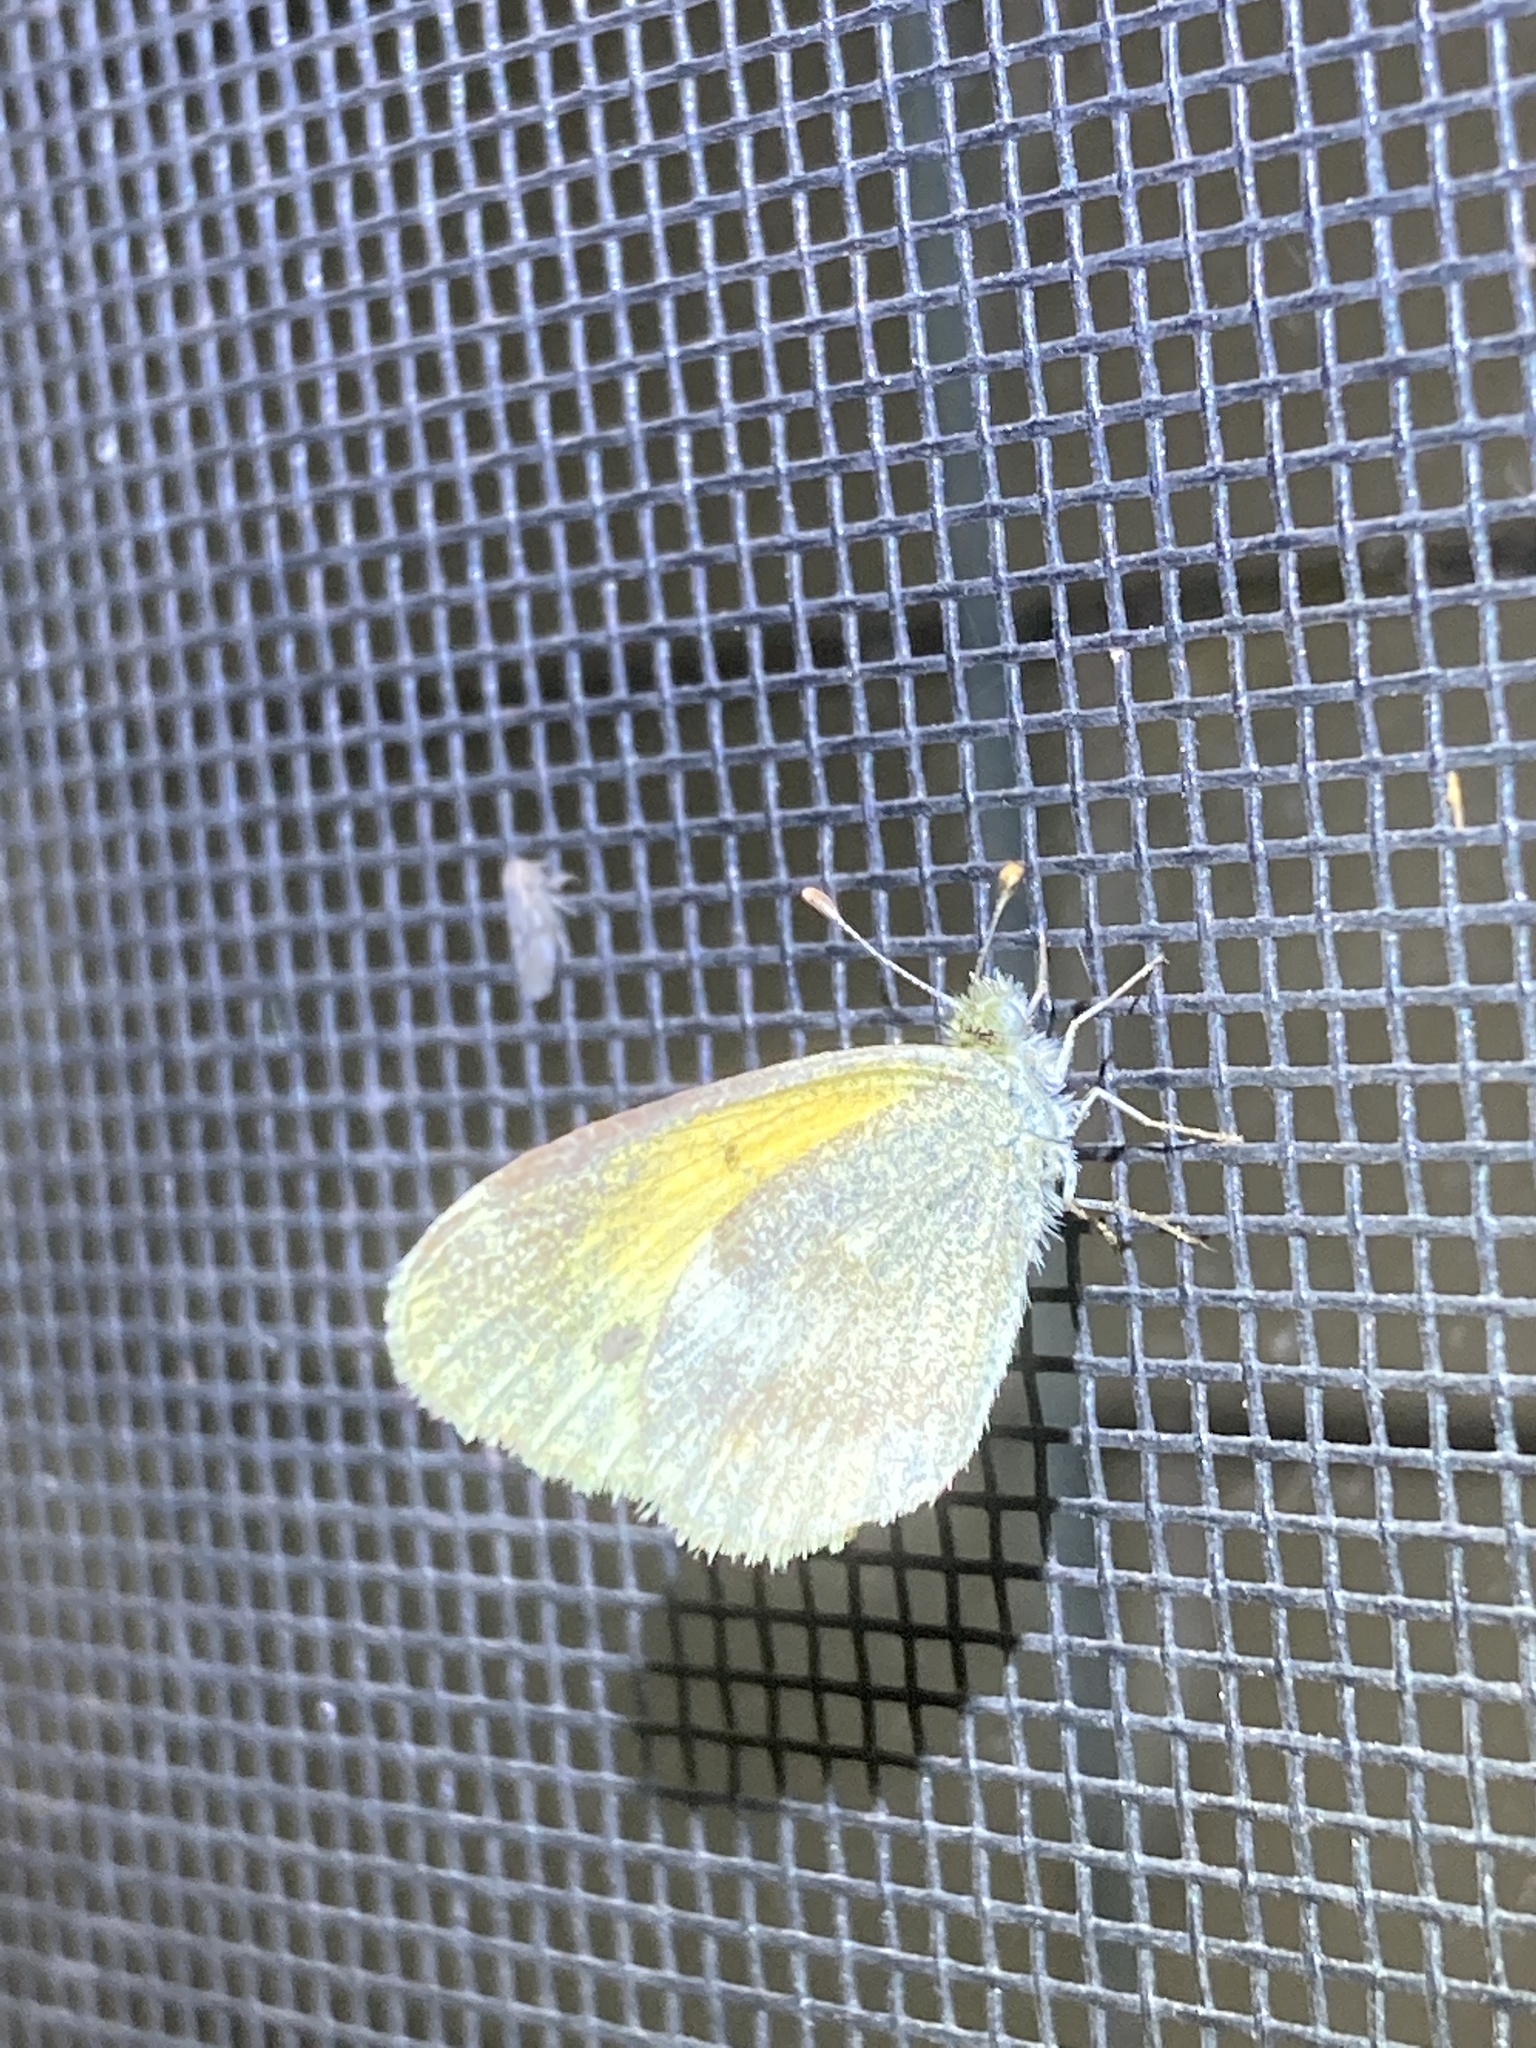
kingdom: Animalia
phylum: Arthropoda
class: Insecta
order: Lepidoptera
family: Pieridae
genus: Nathalis
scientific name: Nathalis iole
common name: Dainty sulphur
